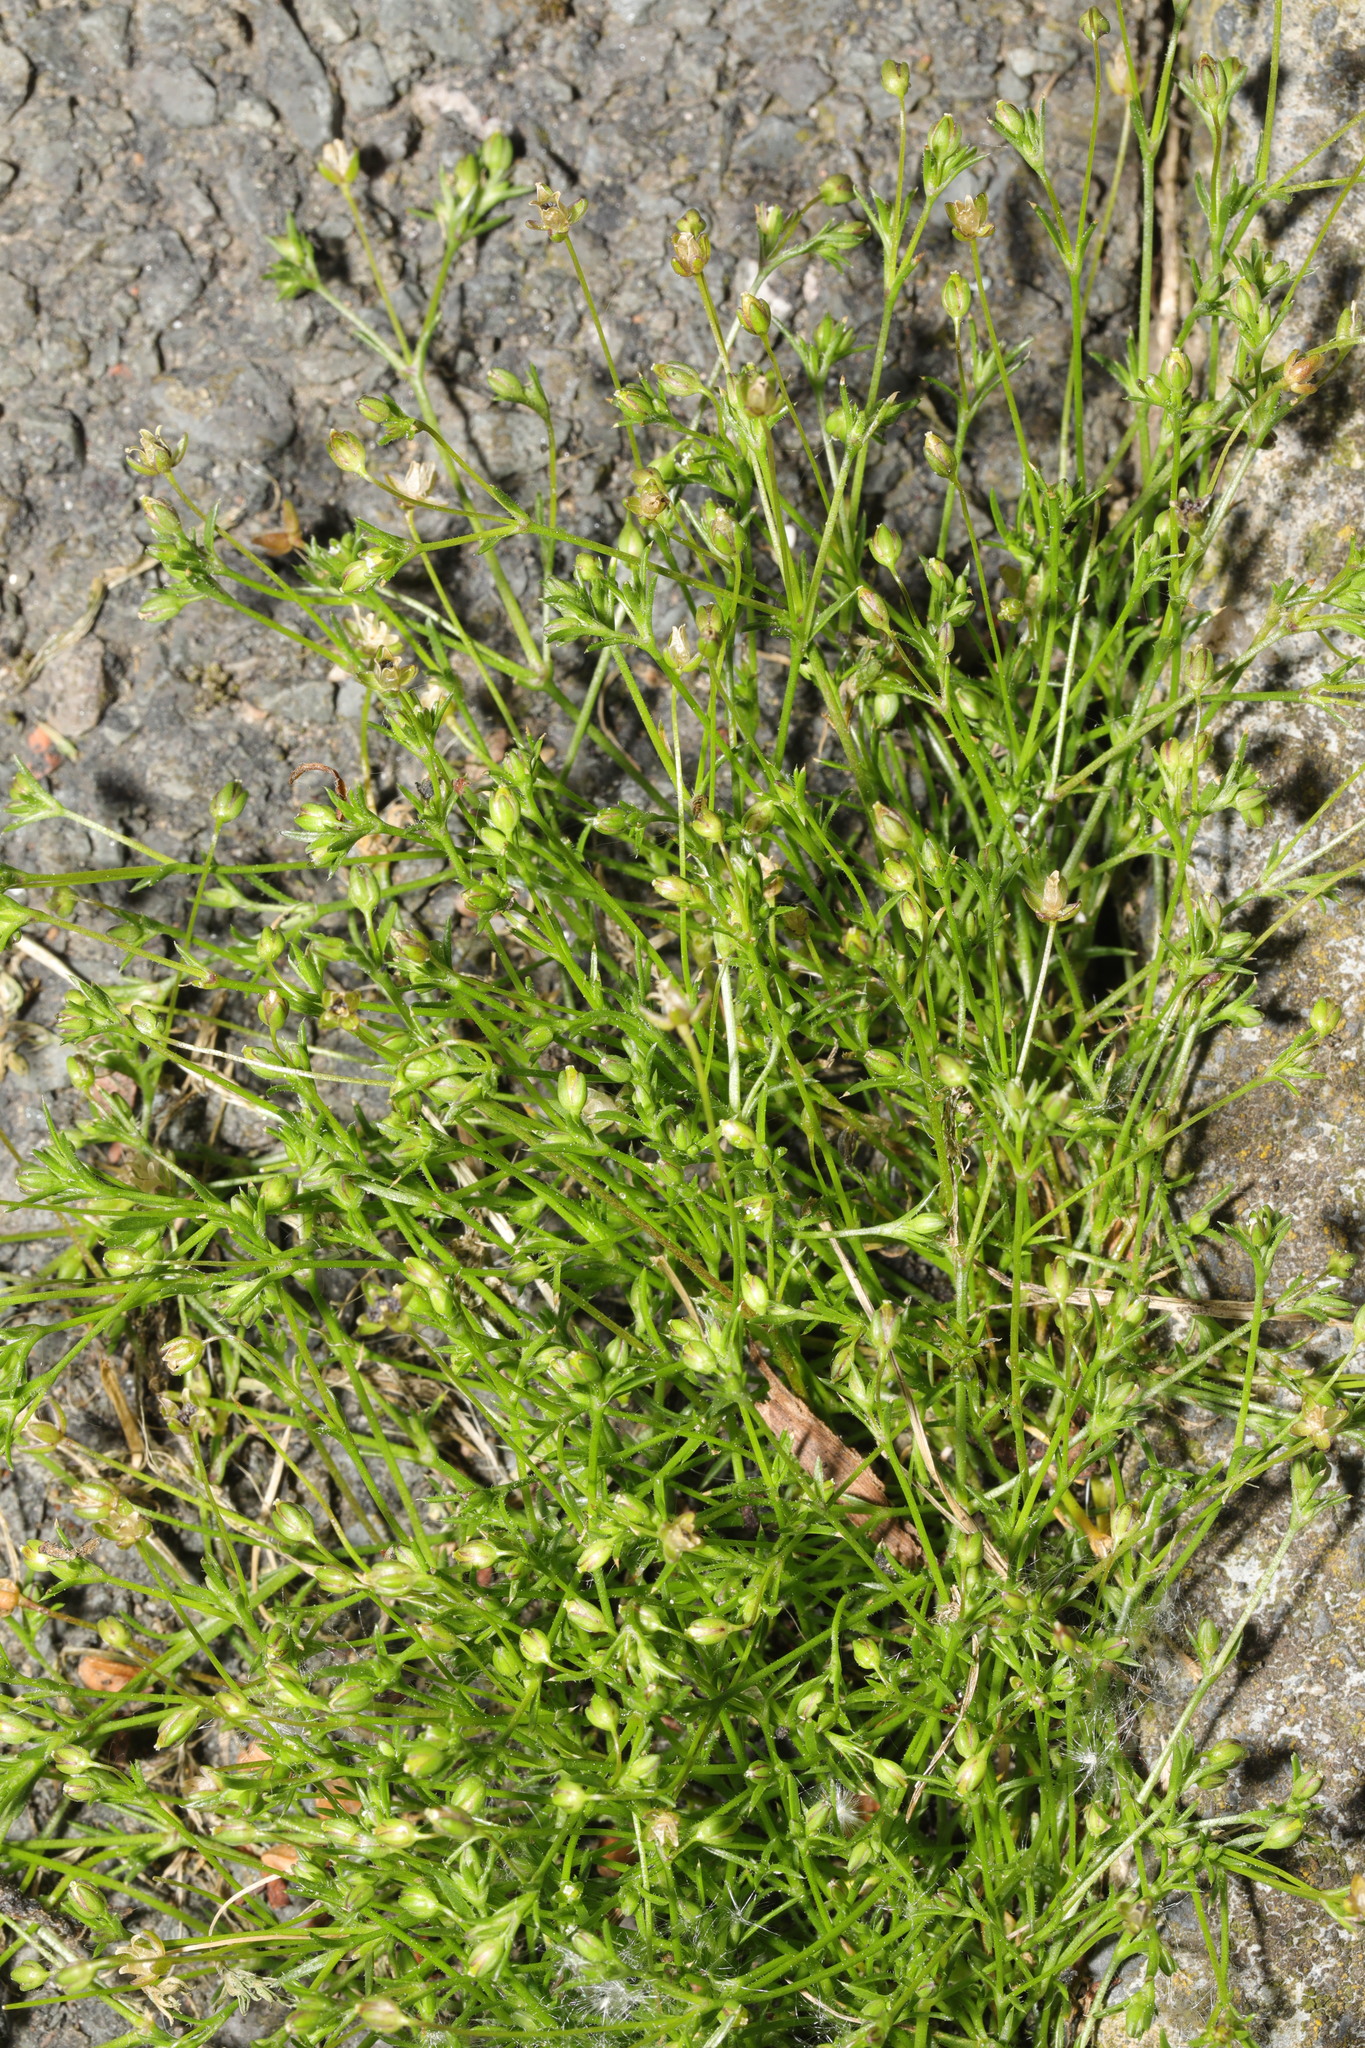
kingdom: Plantae
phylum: Tracheophyta
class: Magnoliopsida
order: Caryophyllales
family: Caryophyllaceae
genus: Sagina
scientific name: Sagina procumbens
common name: Procumbent pearlwort
